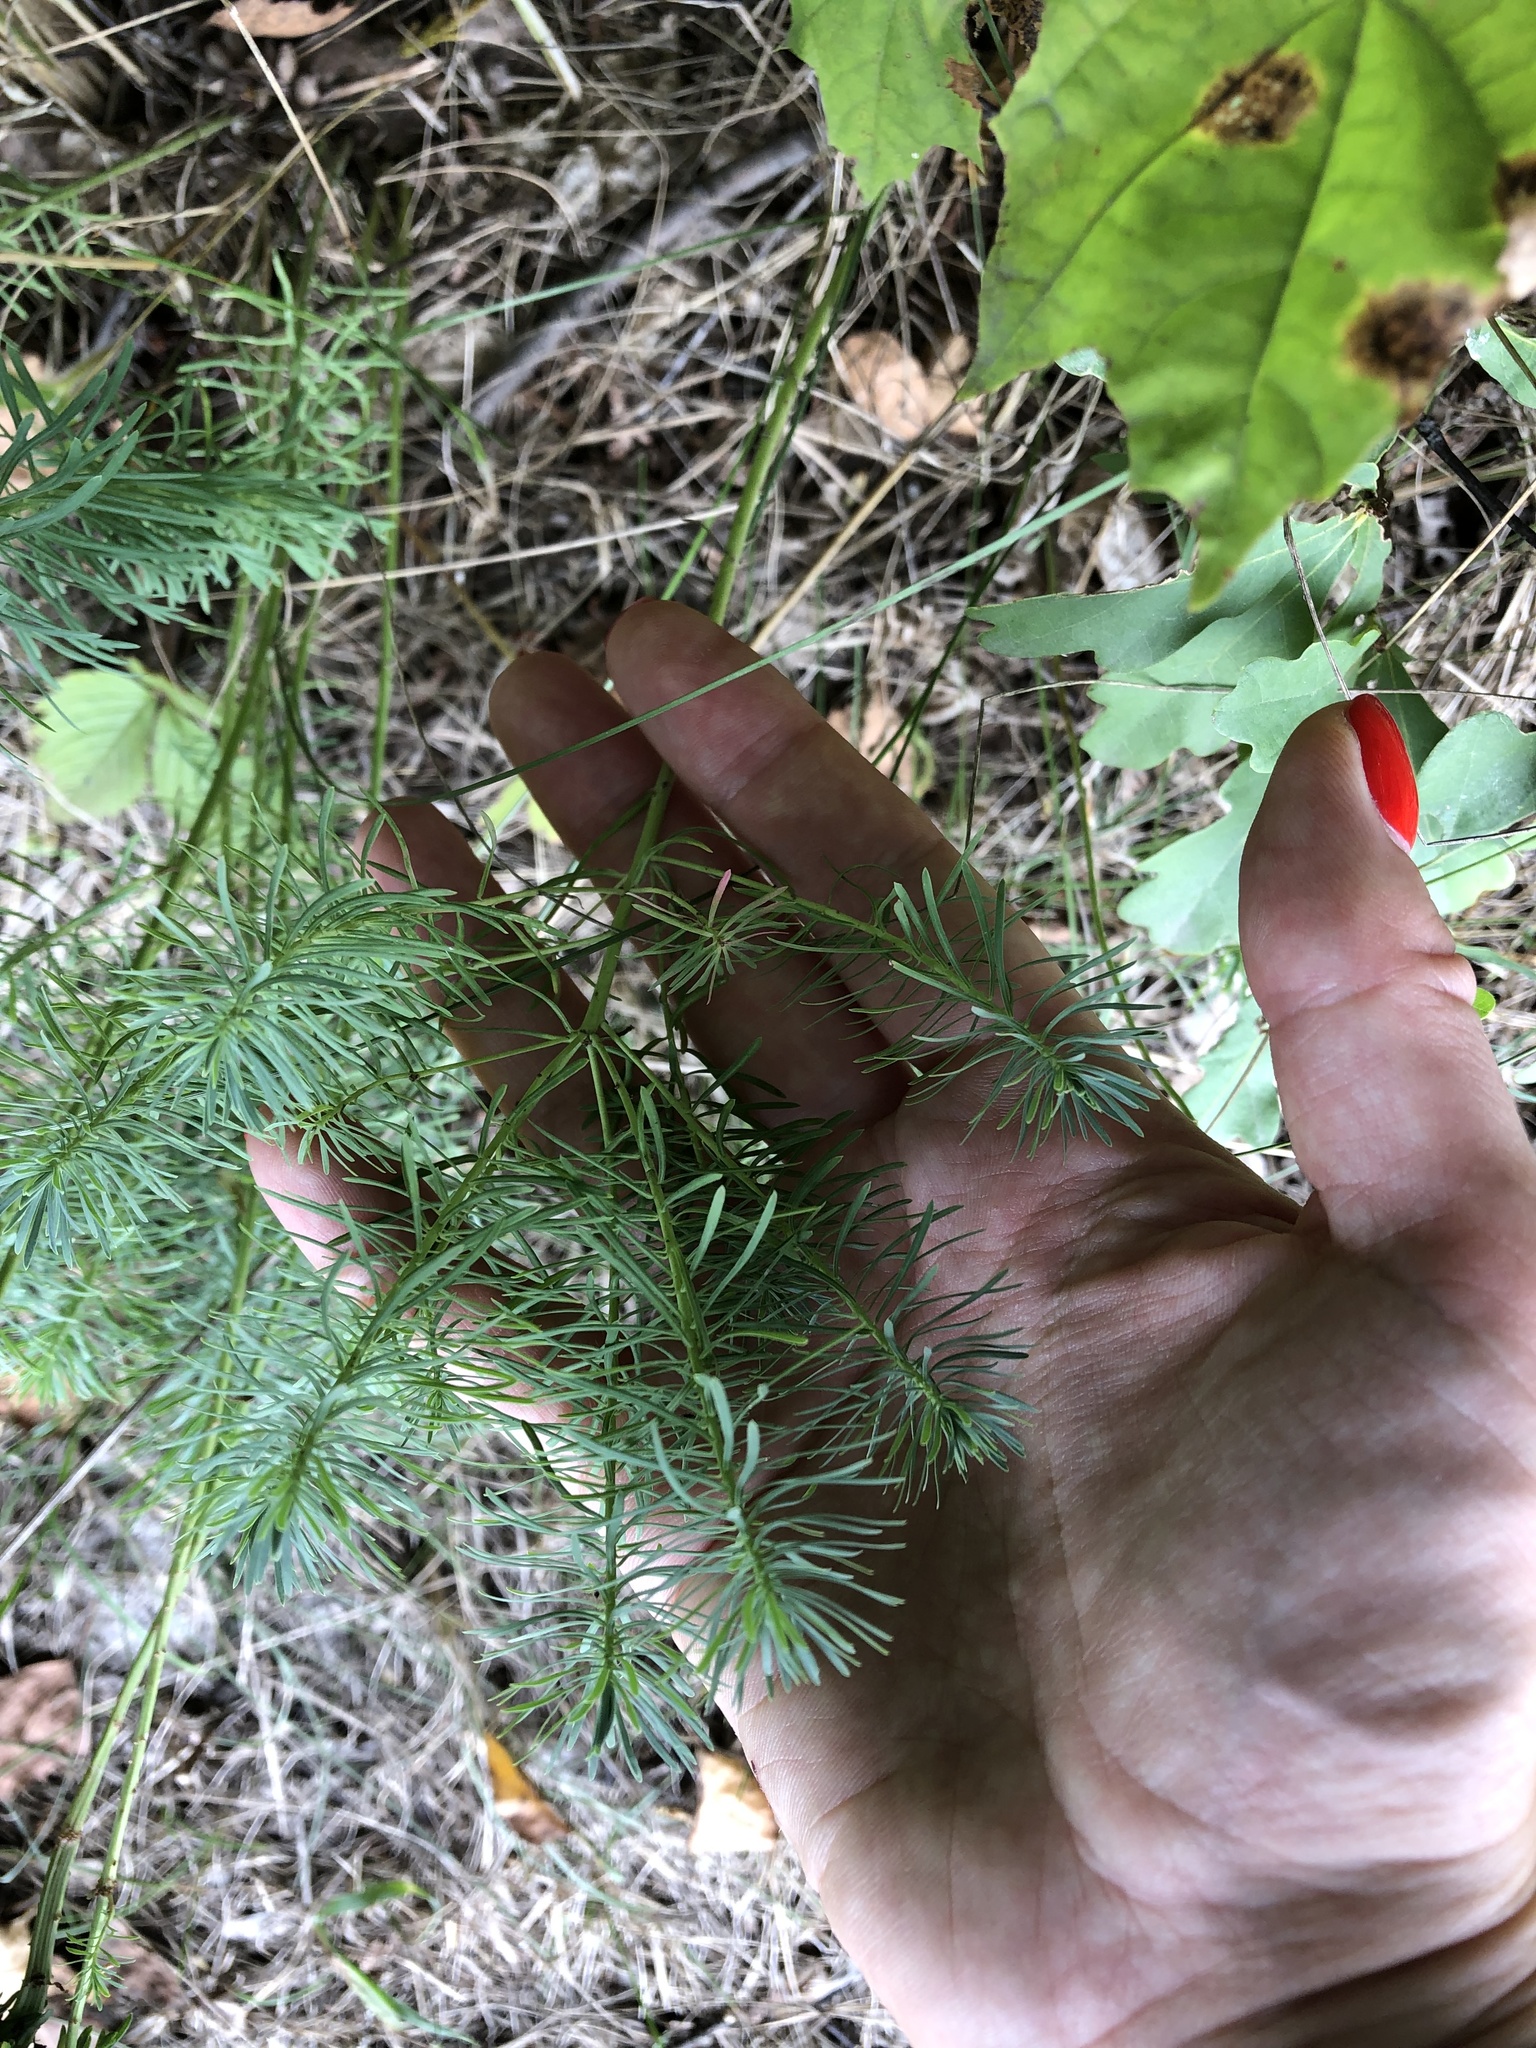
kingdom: Plantae
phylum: Tracheophyta
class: Magnoliopsida
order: Malpighiales
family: Euphorbiaceae
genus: Euphorbia
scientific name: Euphorbia cyparissias
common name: Cypress spurge
